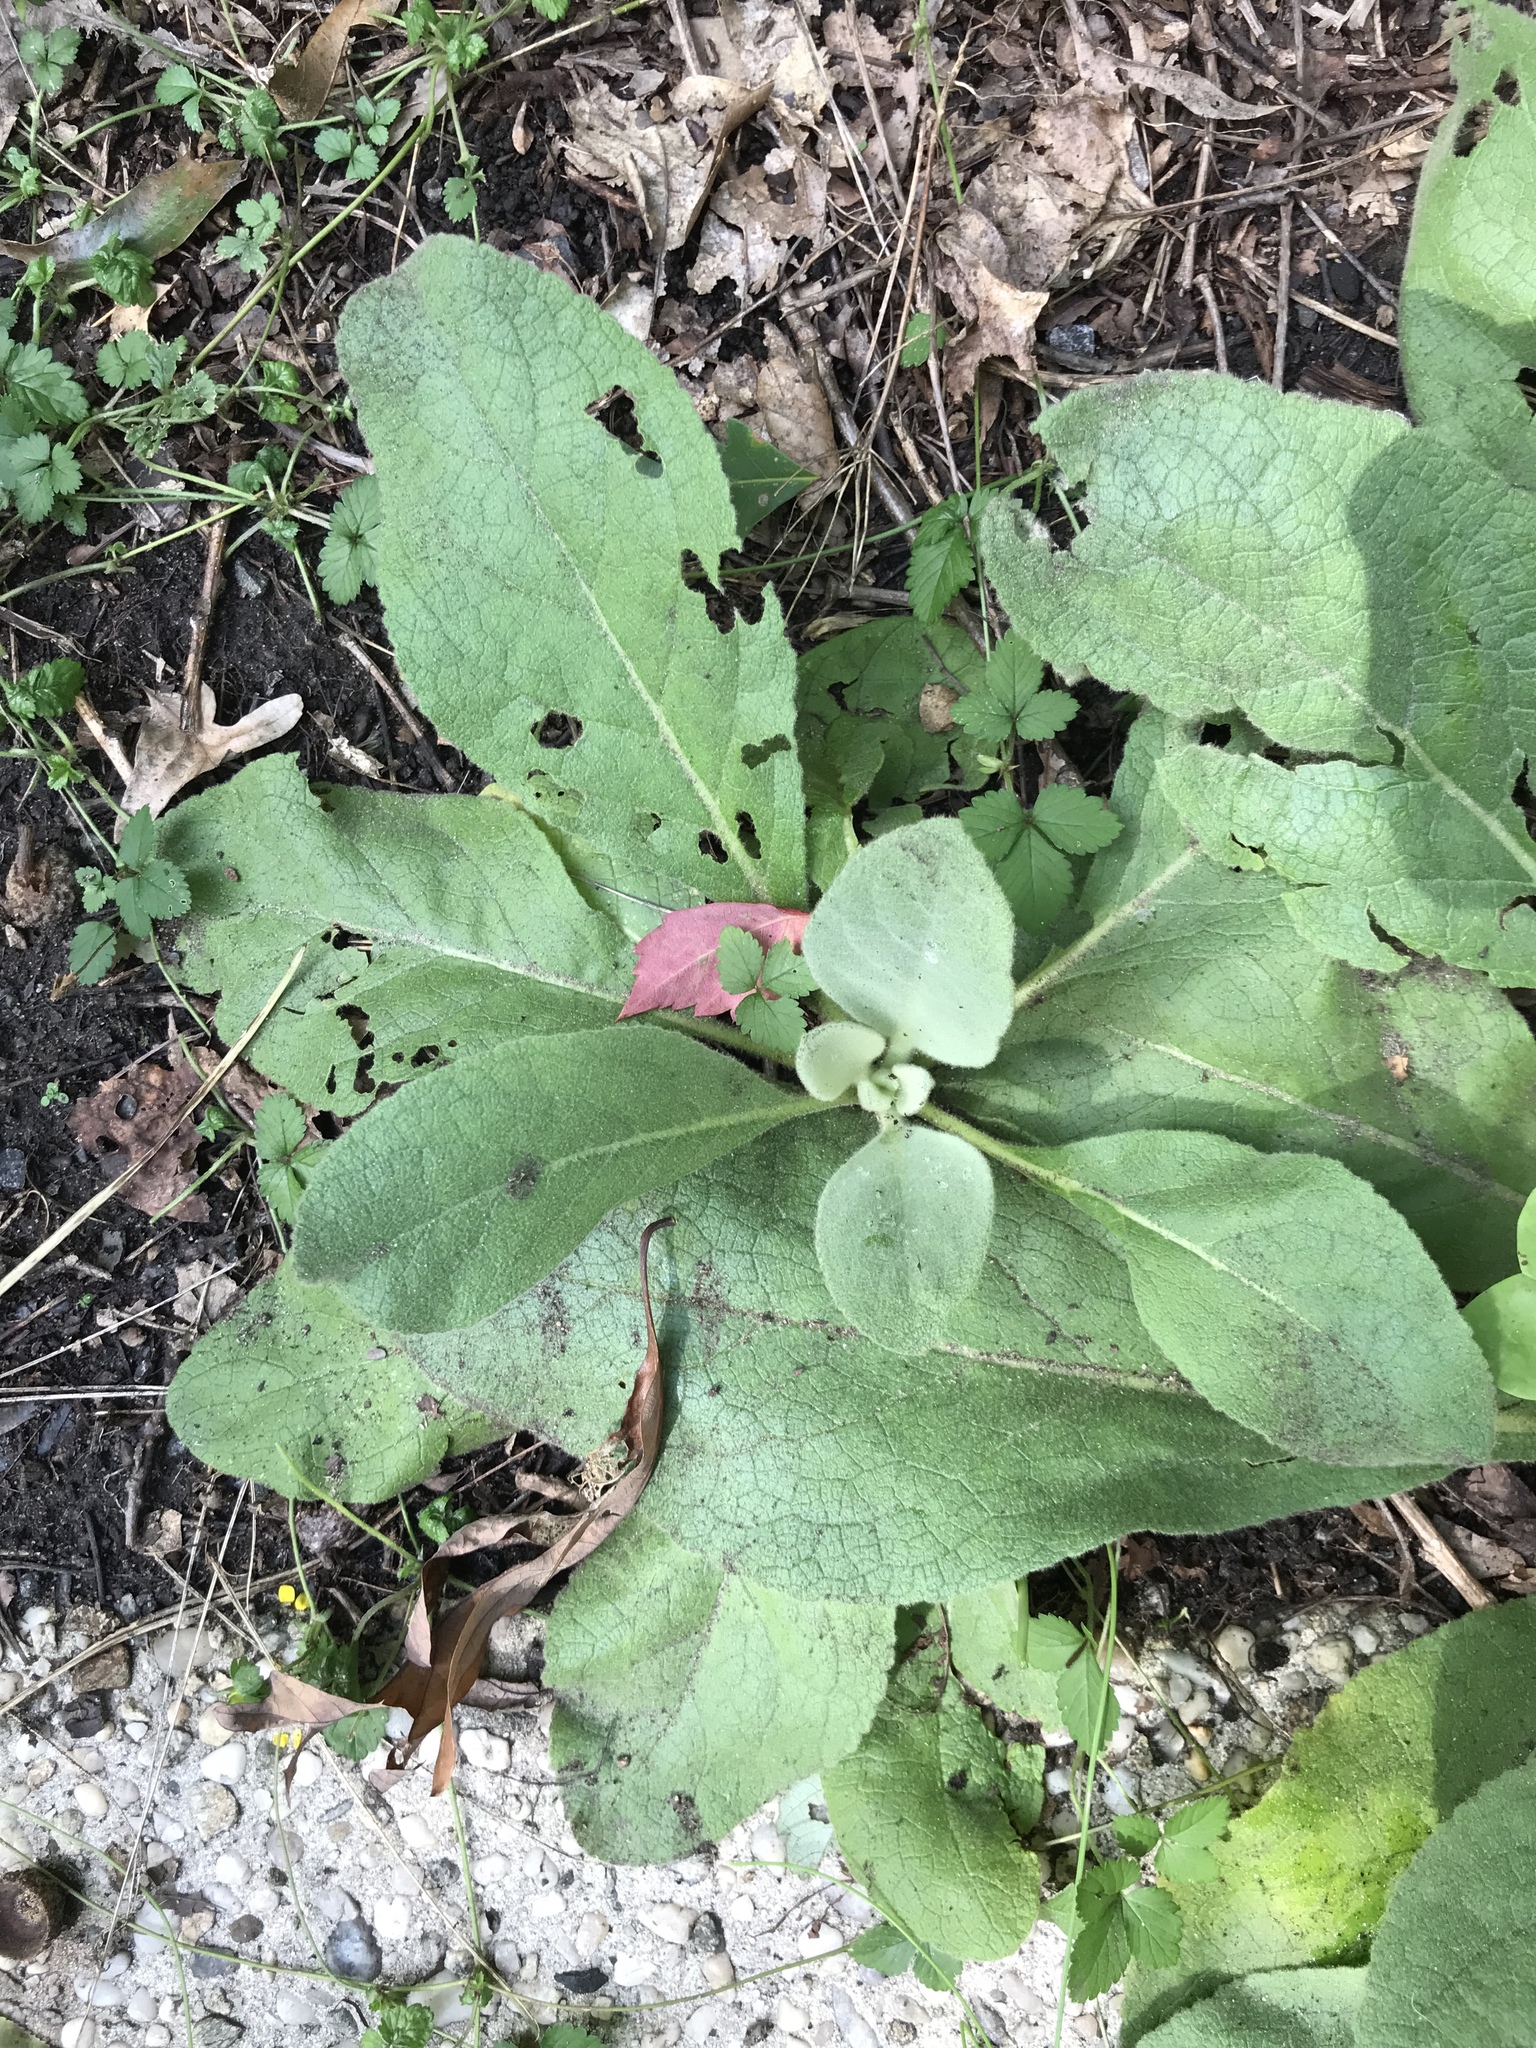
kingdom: Plantae
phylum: Tracheophyta
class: Magnoliopsida
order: Lamiales
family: Scrophulariaceae
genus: Verbascum
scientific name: Verbascum thapsus
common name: Common mullein
